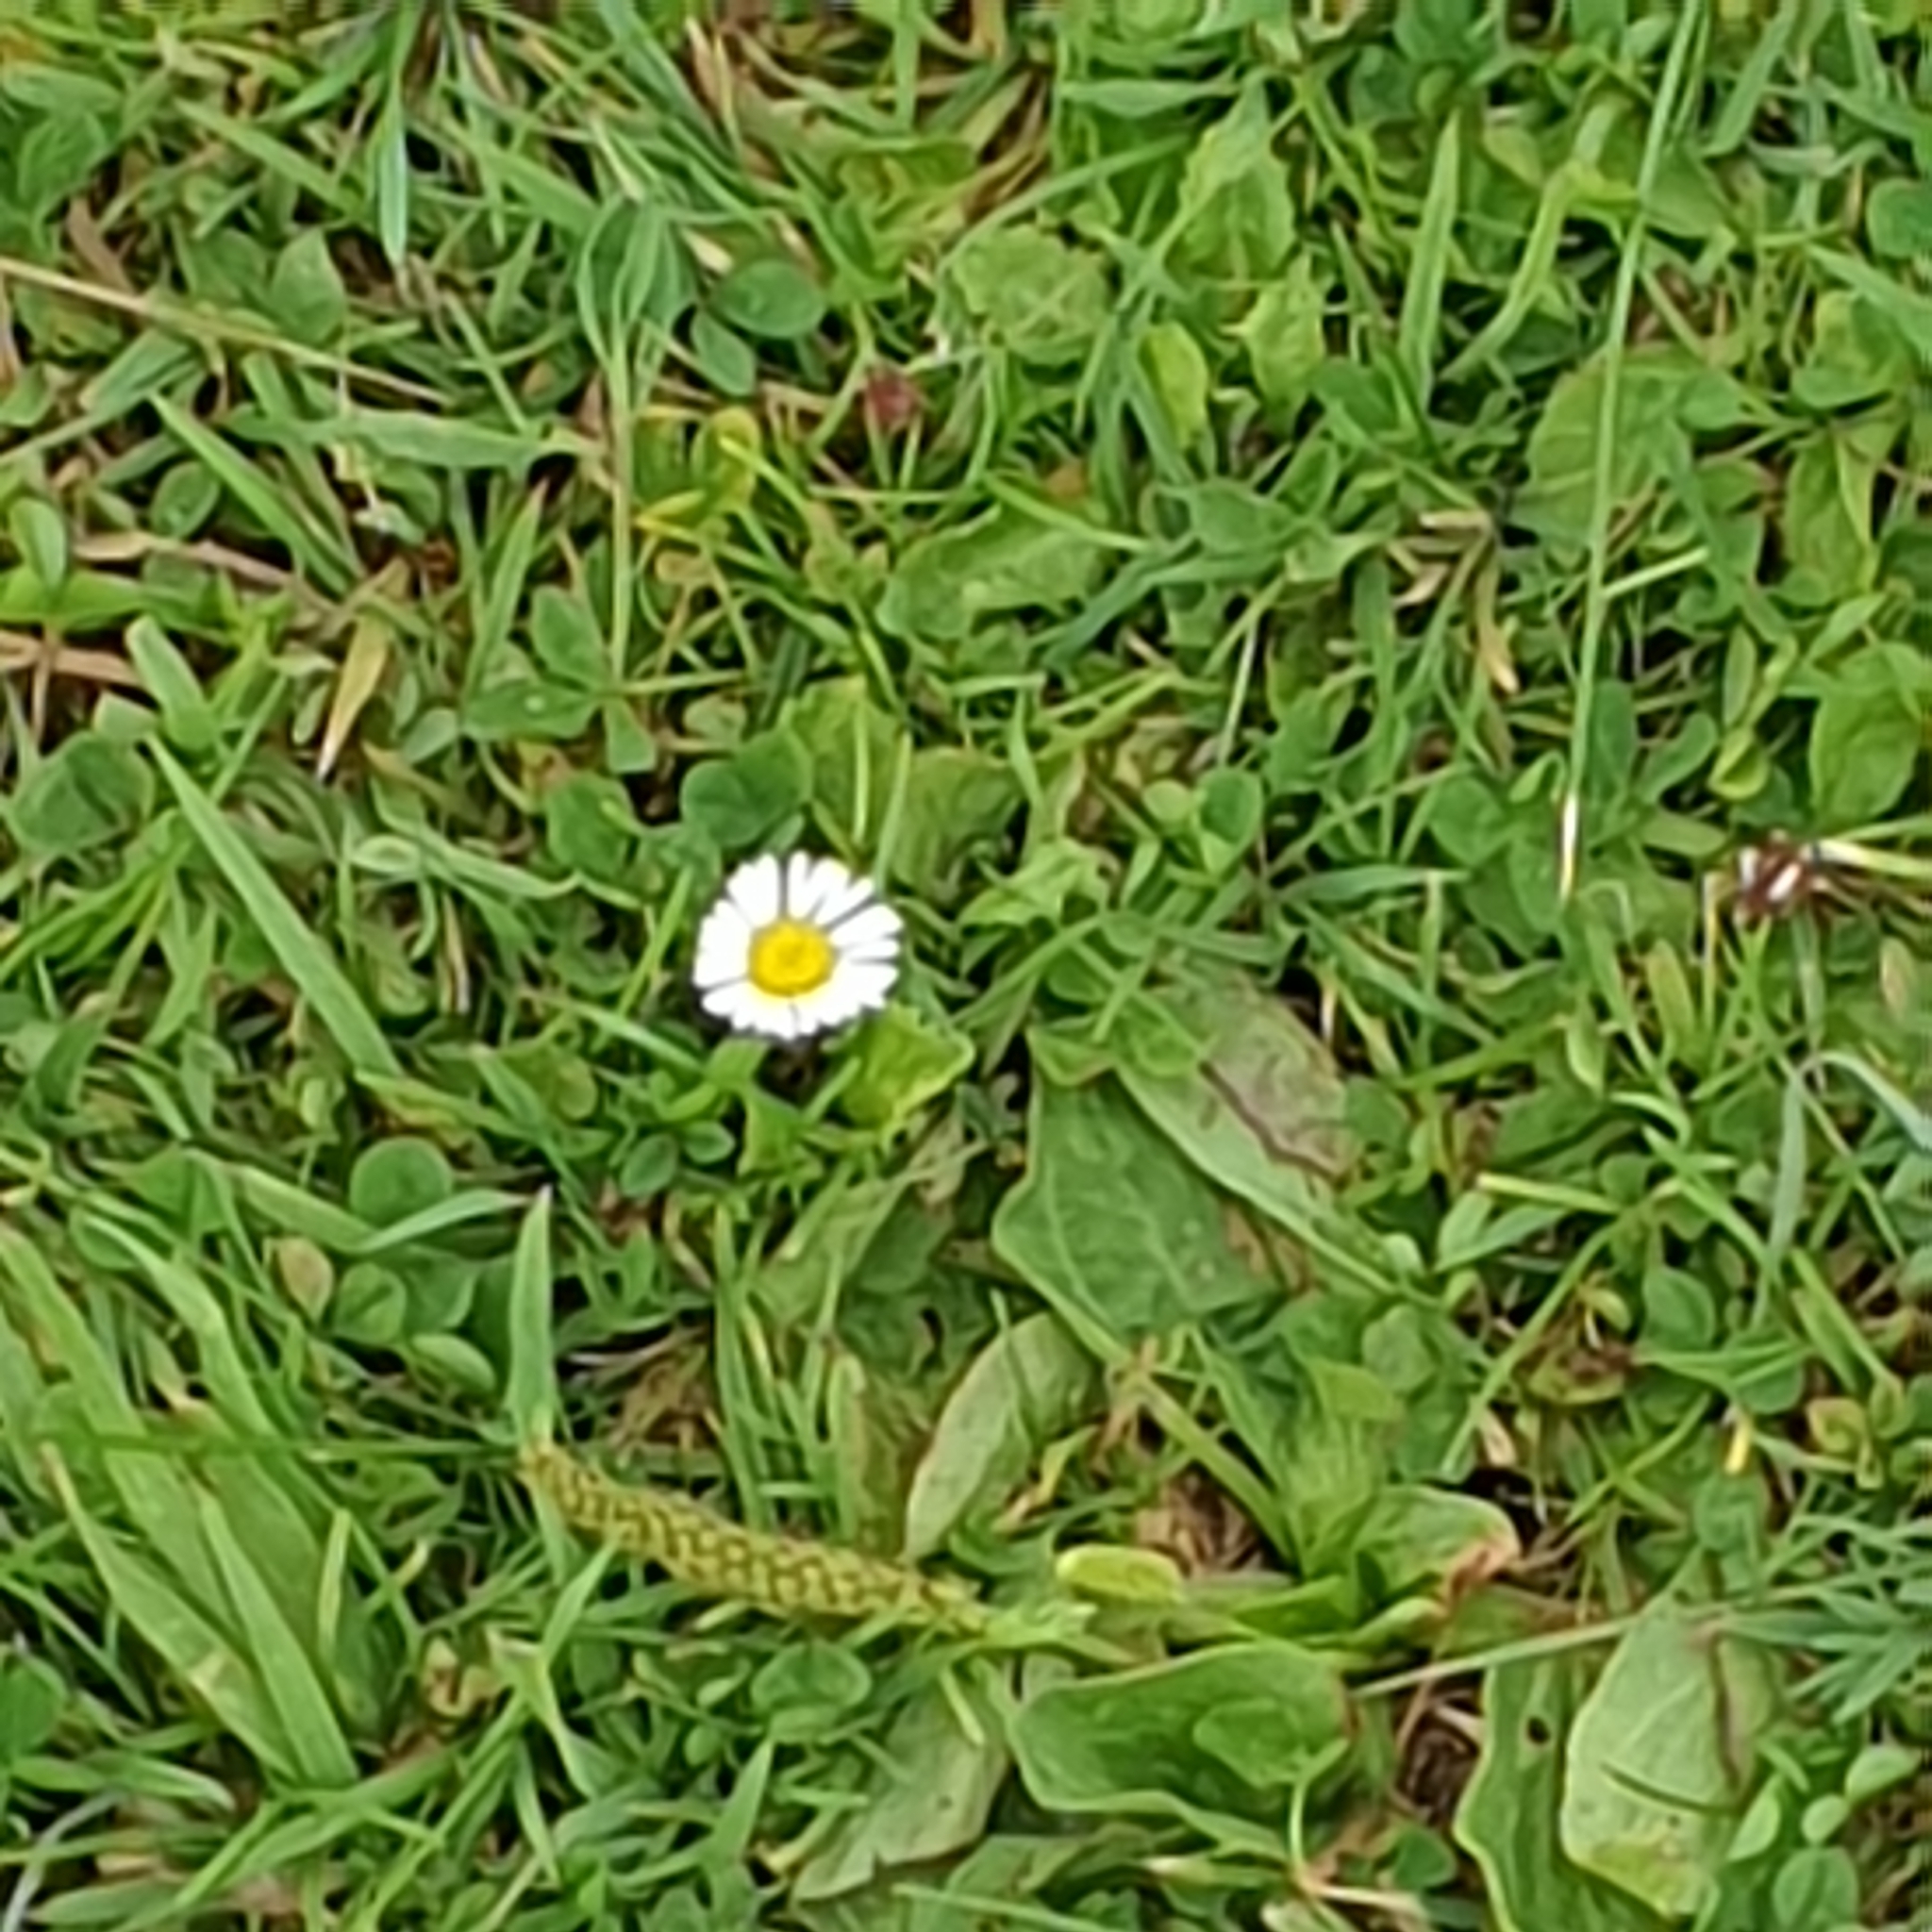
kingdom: Plantae
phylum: Tracheophyta
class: Magnoliopsida
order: Asterales
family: Asteraceae
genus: Bellis
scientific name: Bellis perennis
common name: Lawndaisy
